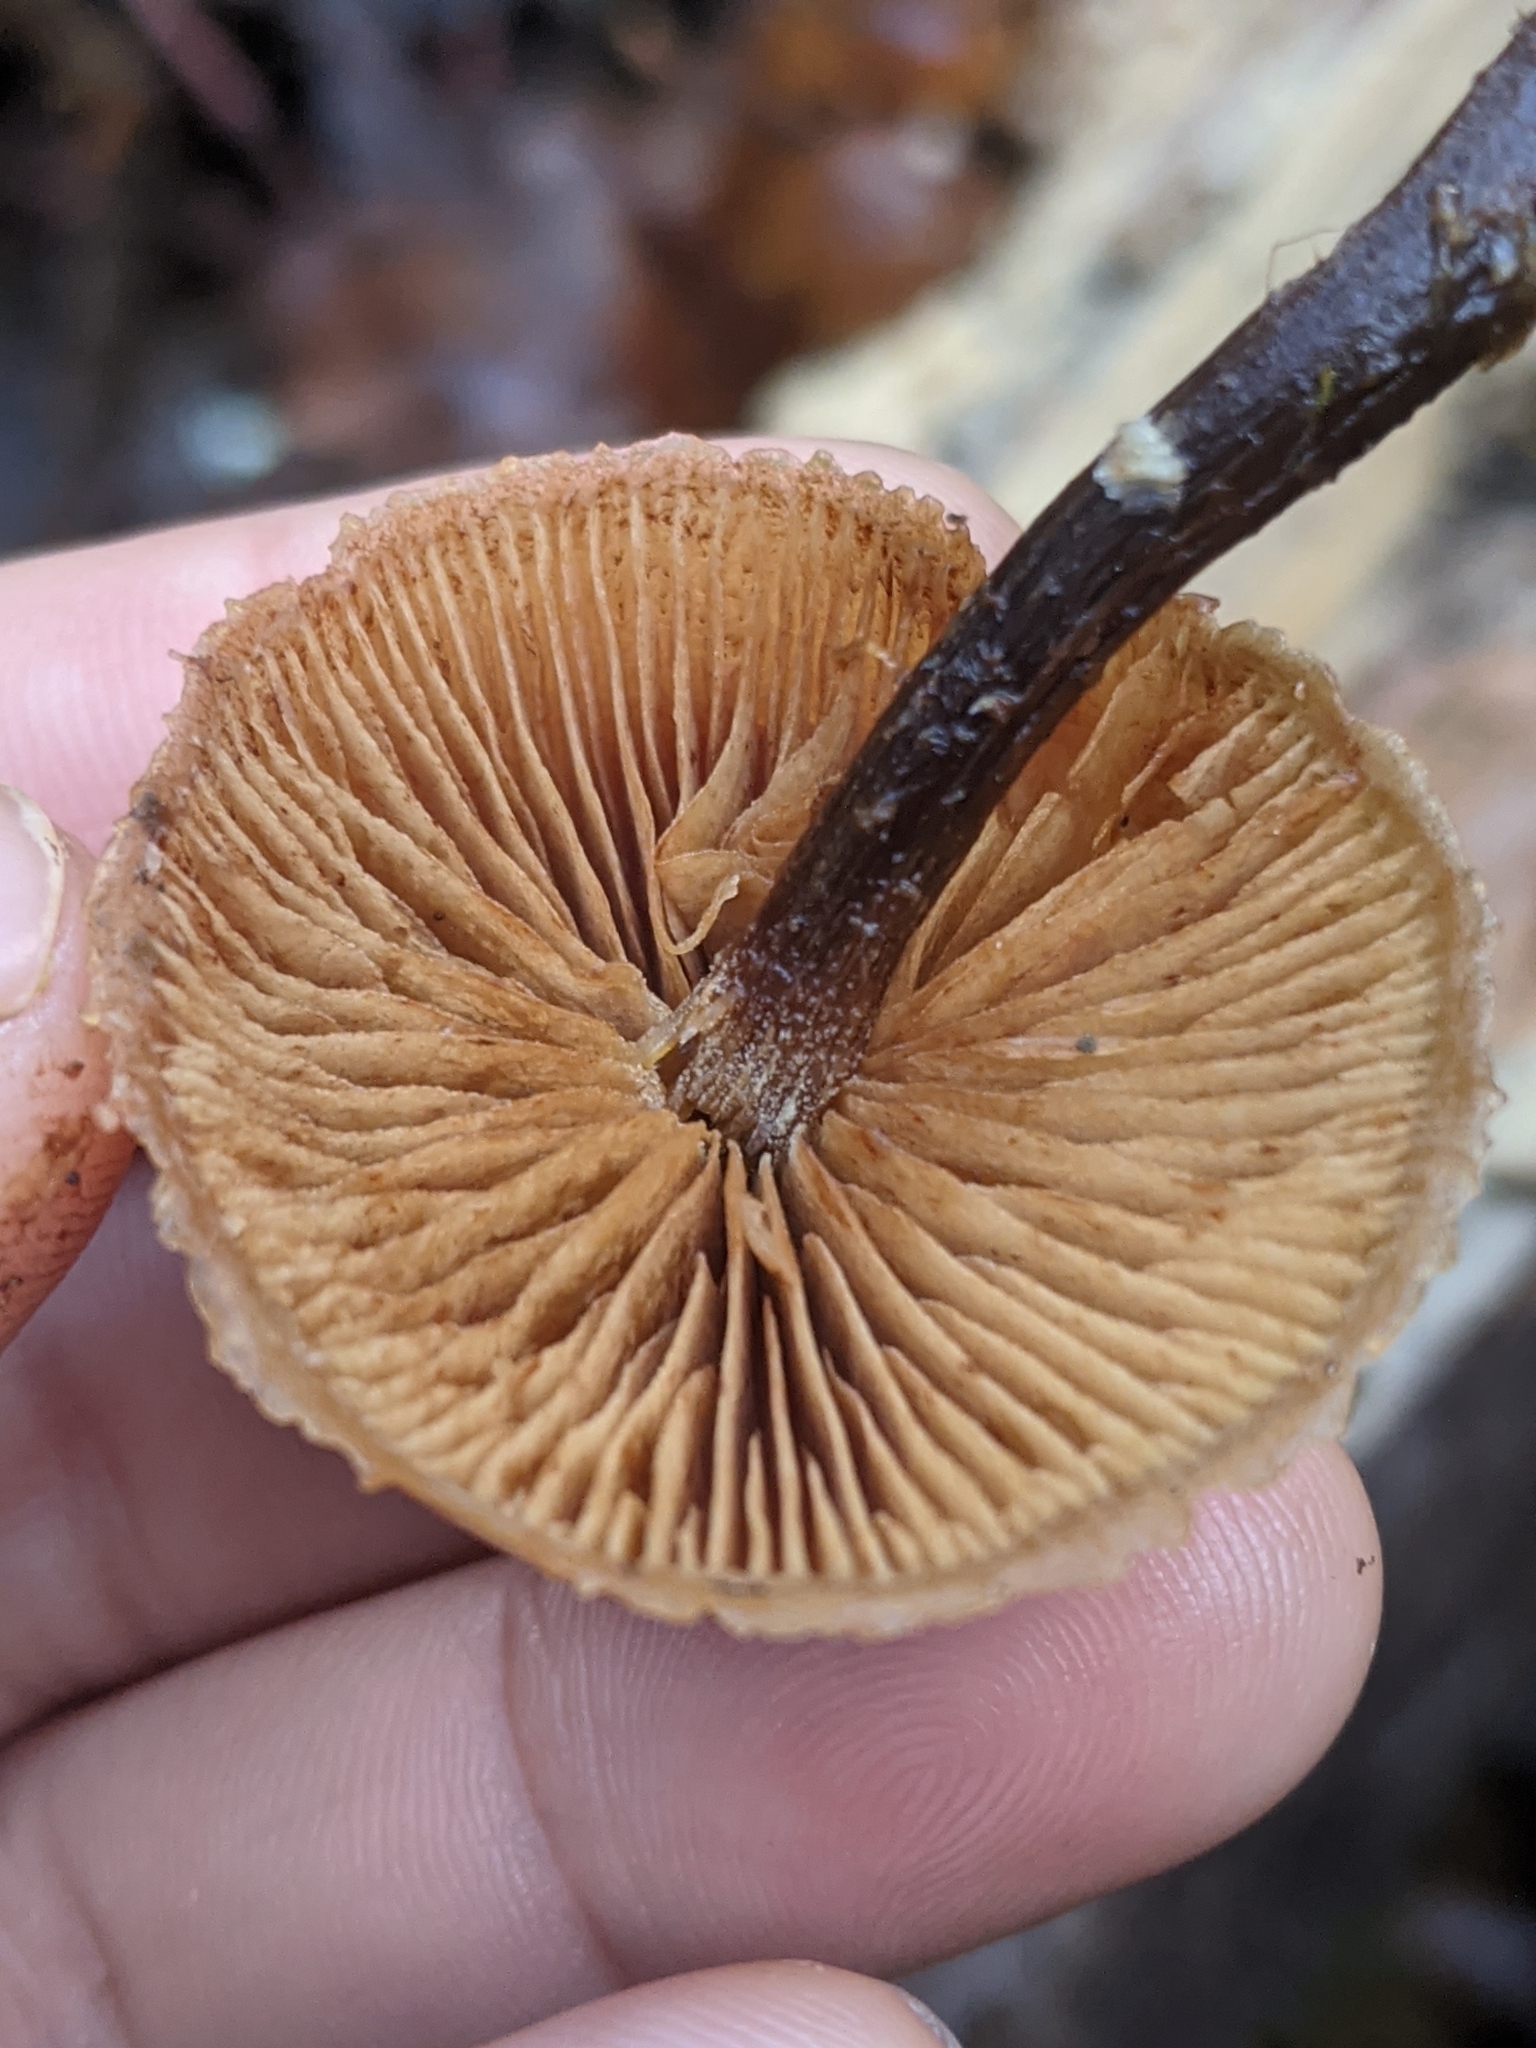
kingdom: Fungi
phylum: Basidiomycota
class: Agaricomycetes
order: Agaricales
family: Hymenogastraceae
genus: Galerina
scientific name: Galerina marginata
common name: Funeral bell
